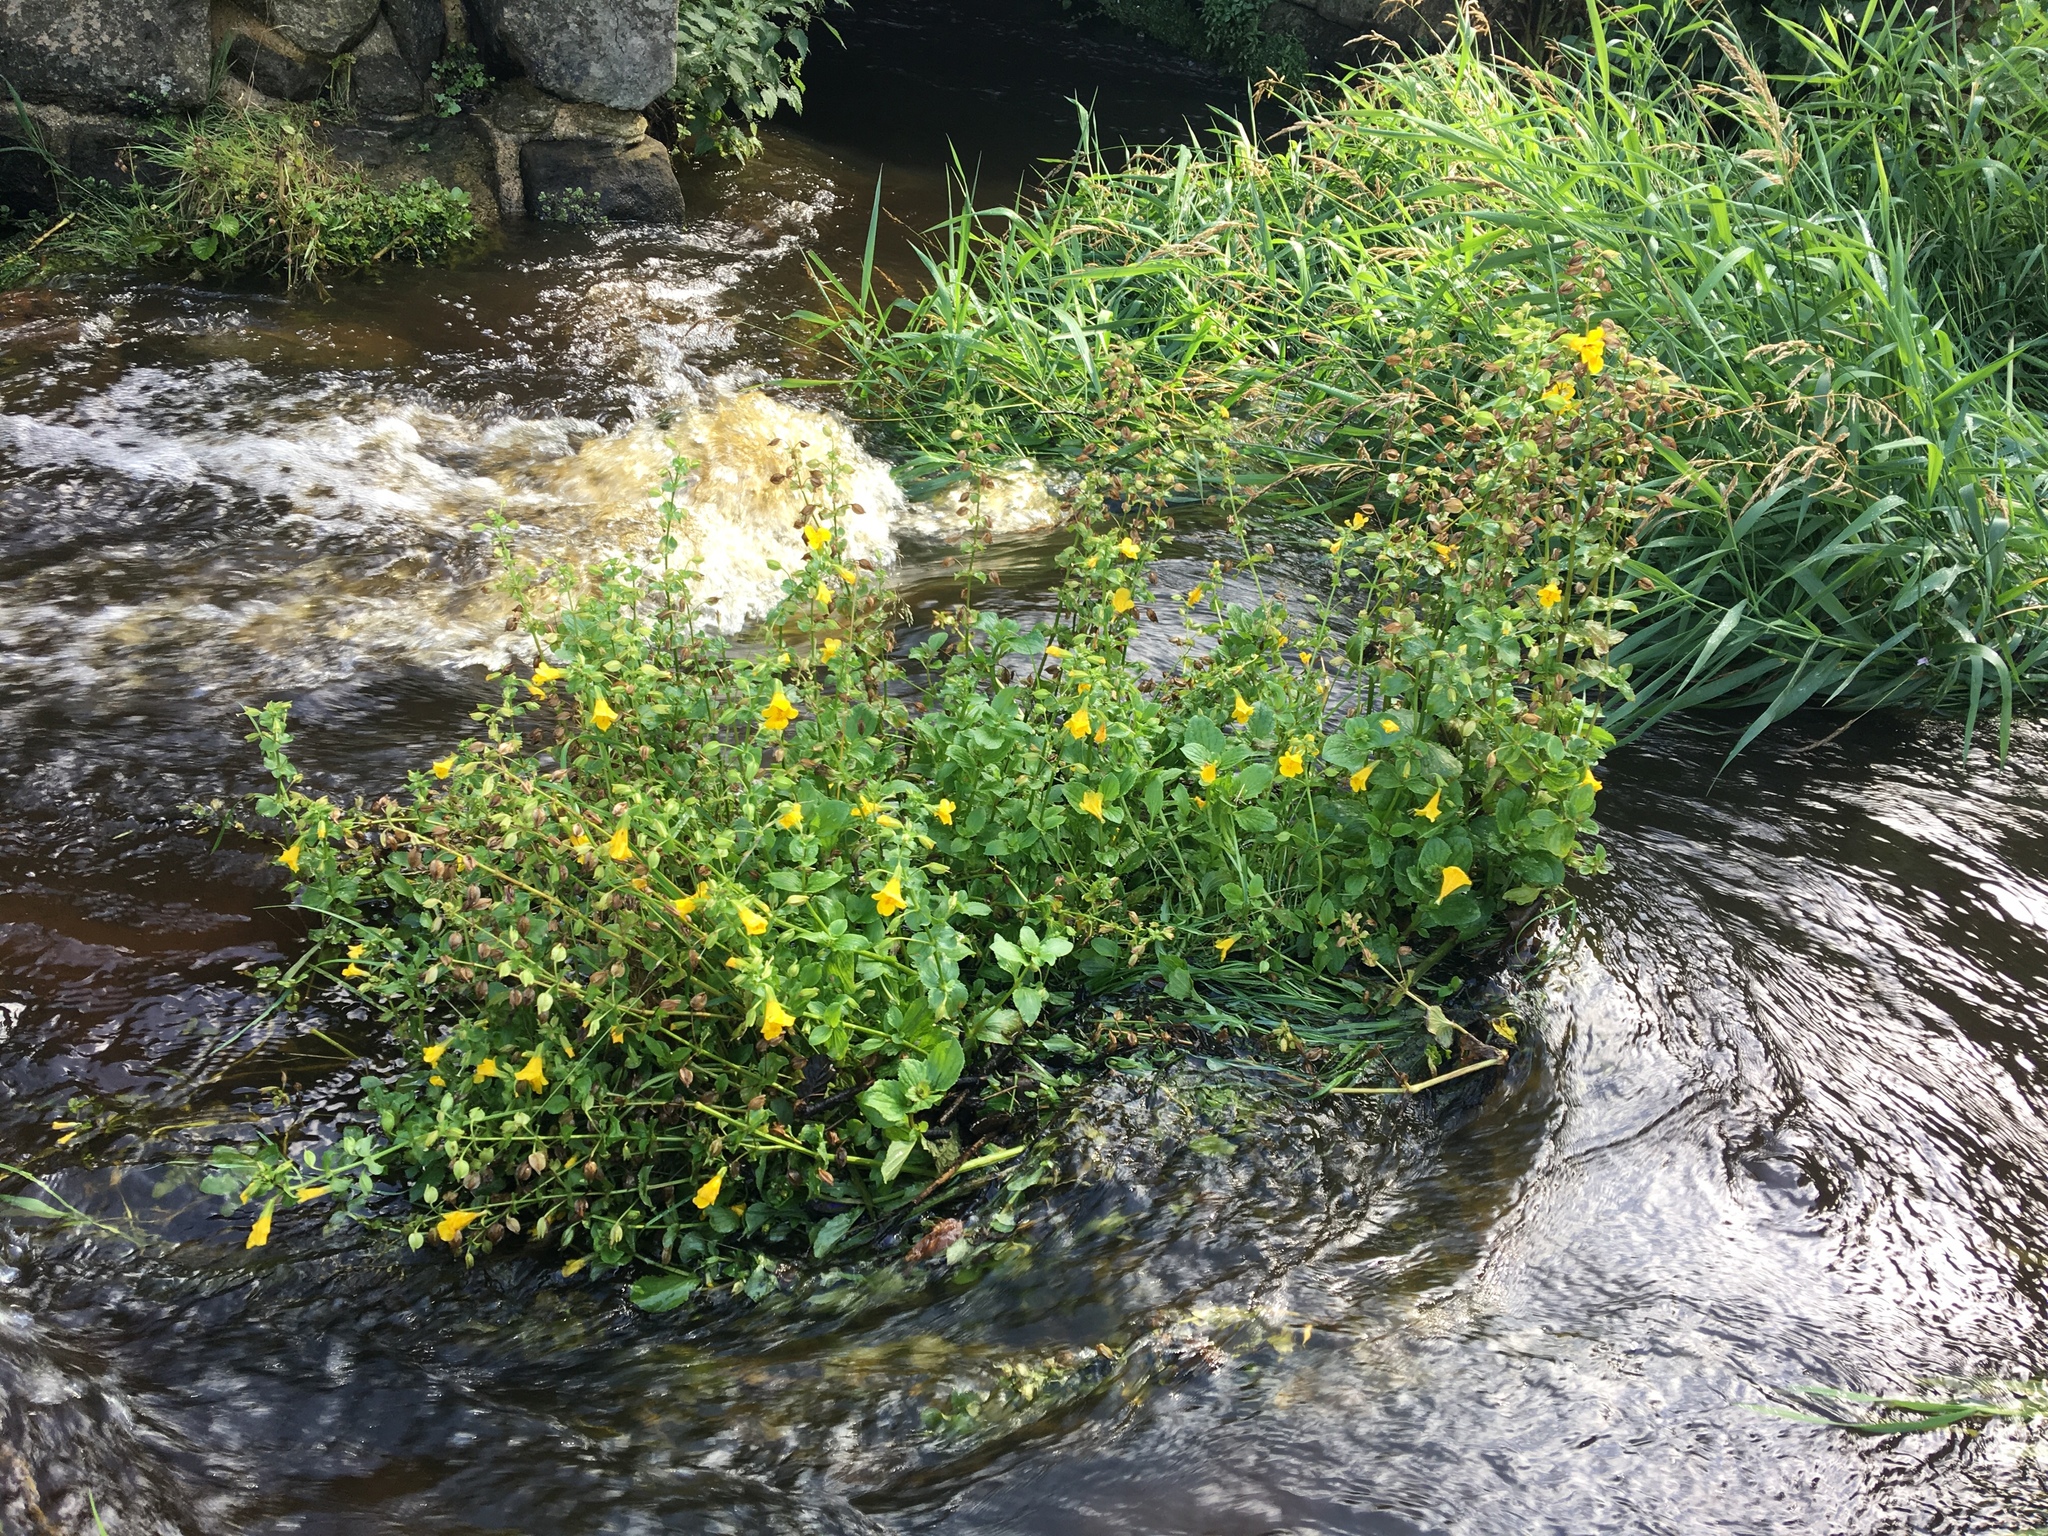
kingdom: Plantae
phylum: Tracheophyta
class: Magnoliopsida
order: Lamiales
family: Phrymaceae
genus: Erythranthe
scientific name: Erythranthe guttata
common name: Monkeyflower
